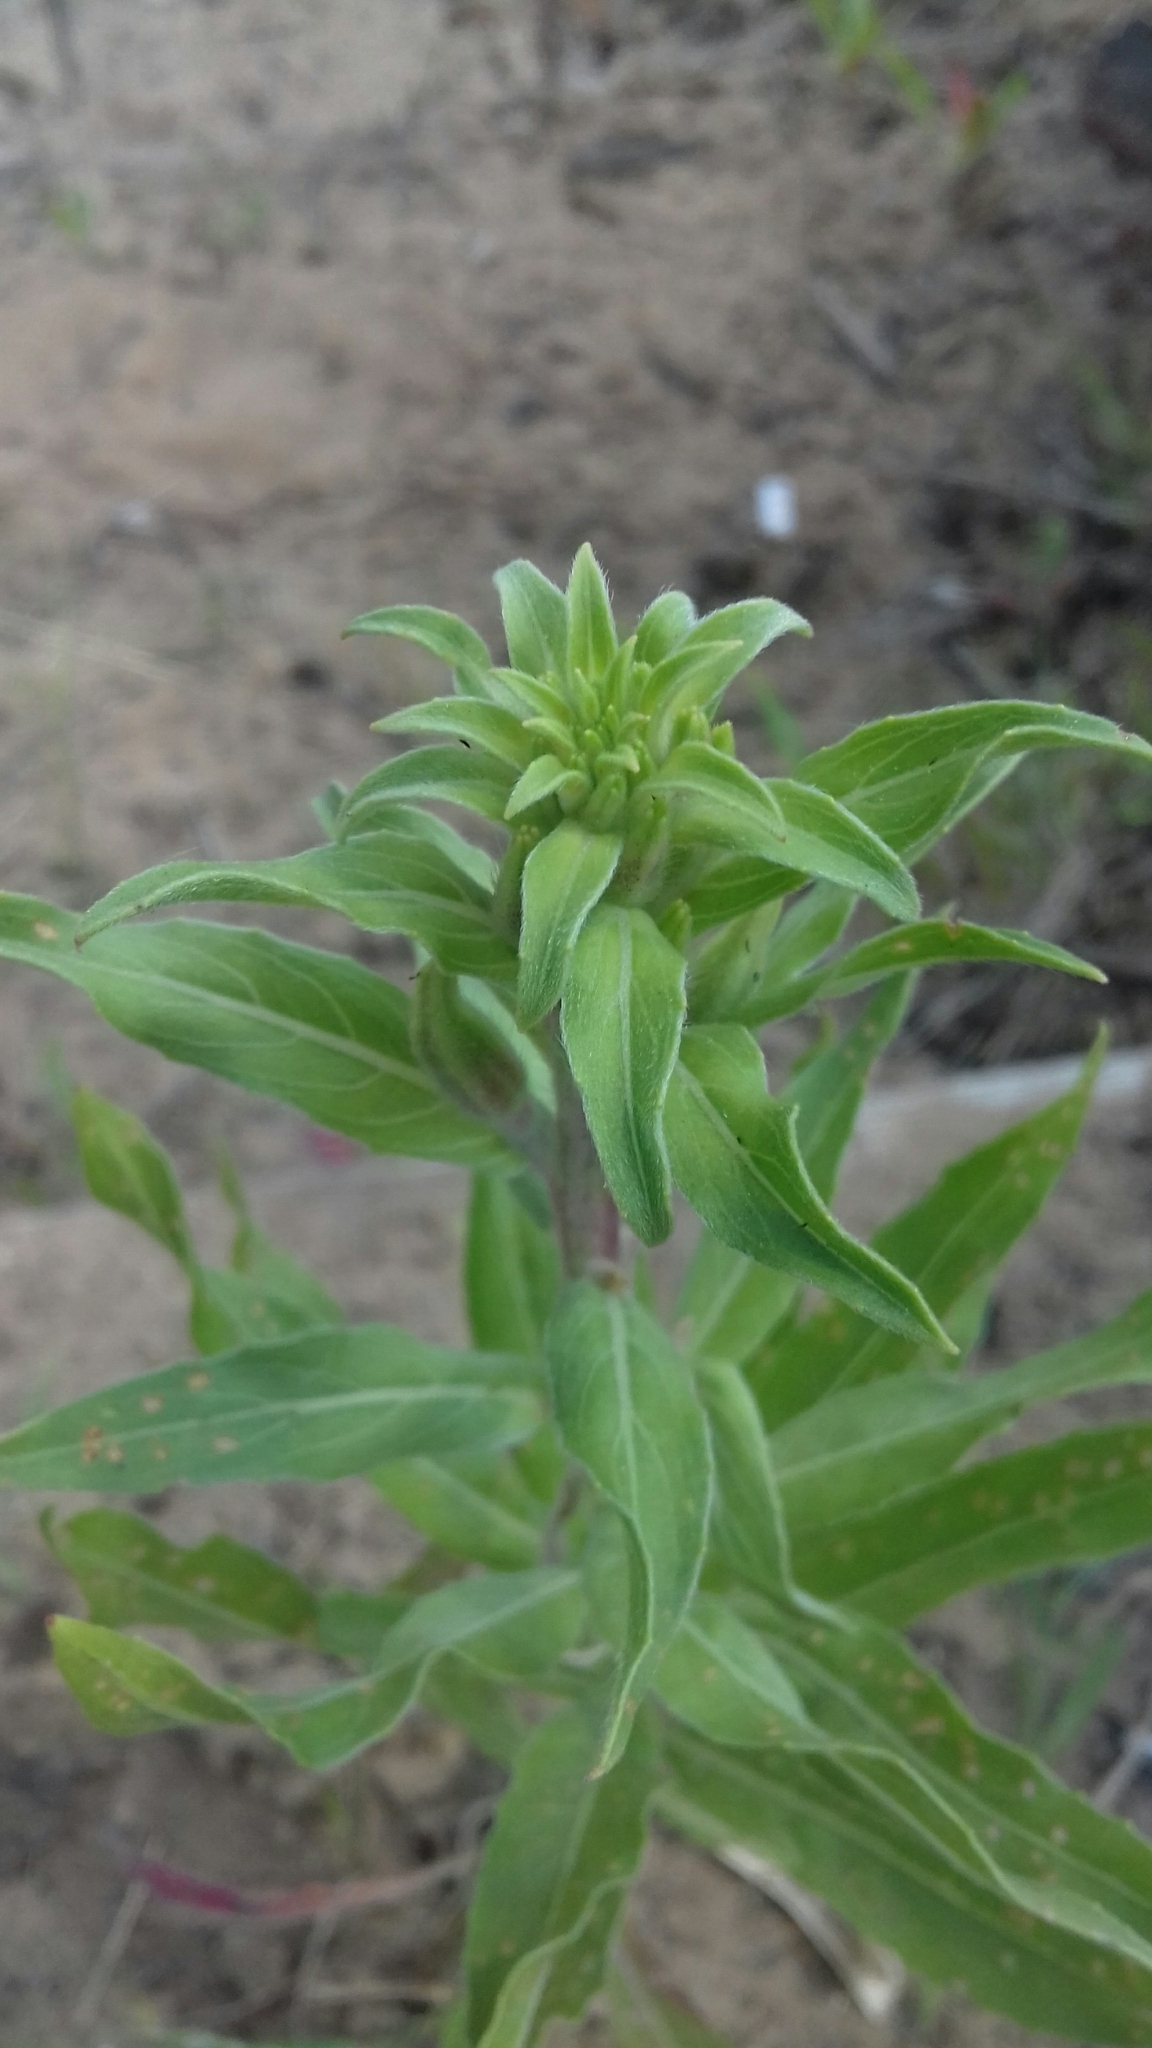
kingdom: Plantae
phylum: Tracheophyta
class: Magnoliopsida
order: Myrtales
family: Onagraceae
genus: Oenothera
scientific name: Oenothera villosa
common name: Hairy evening-primrose
